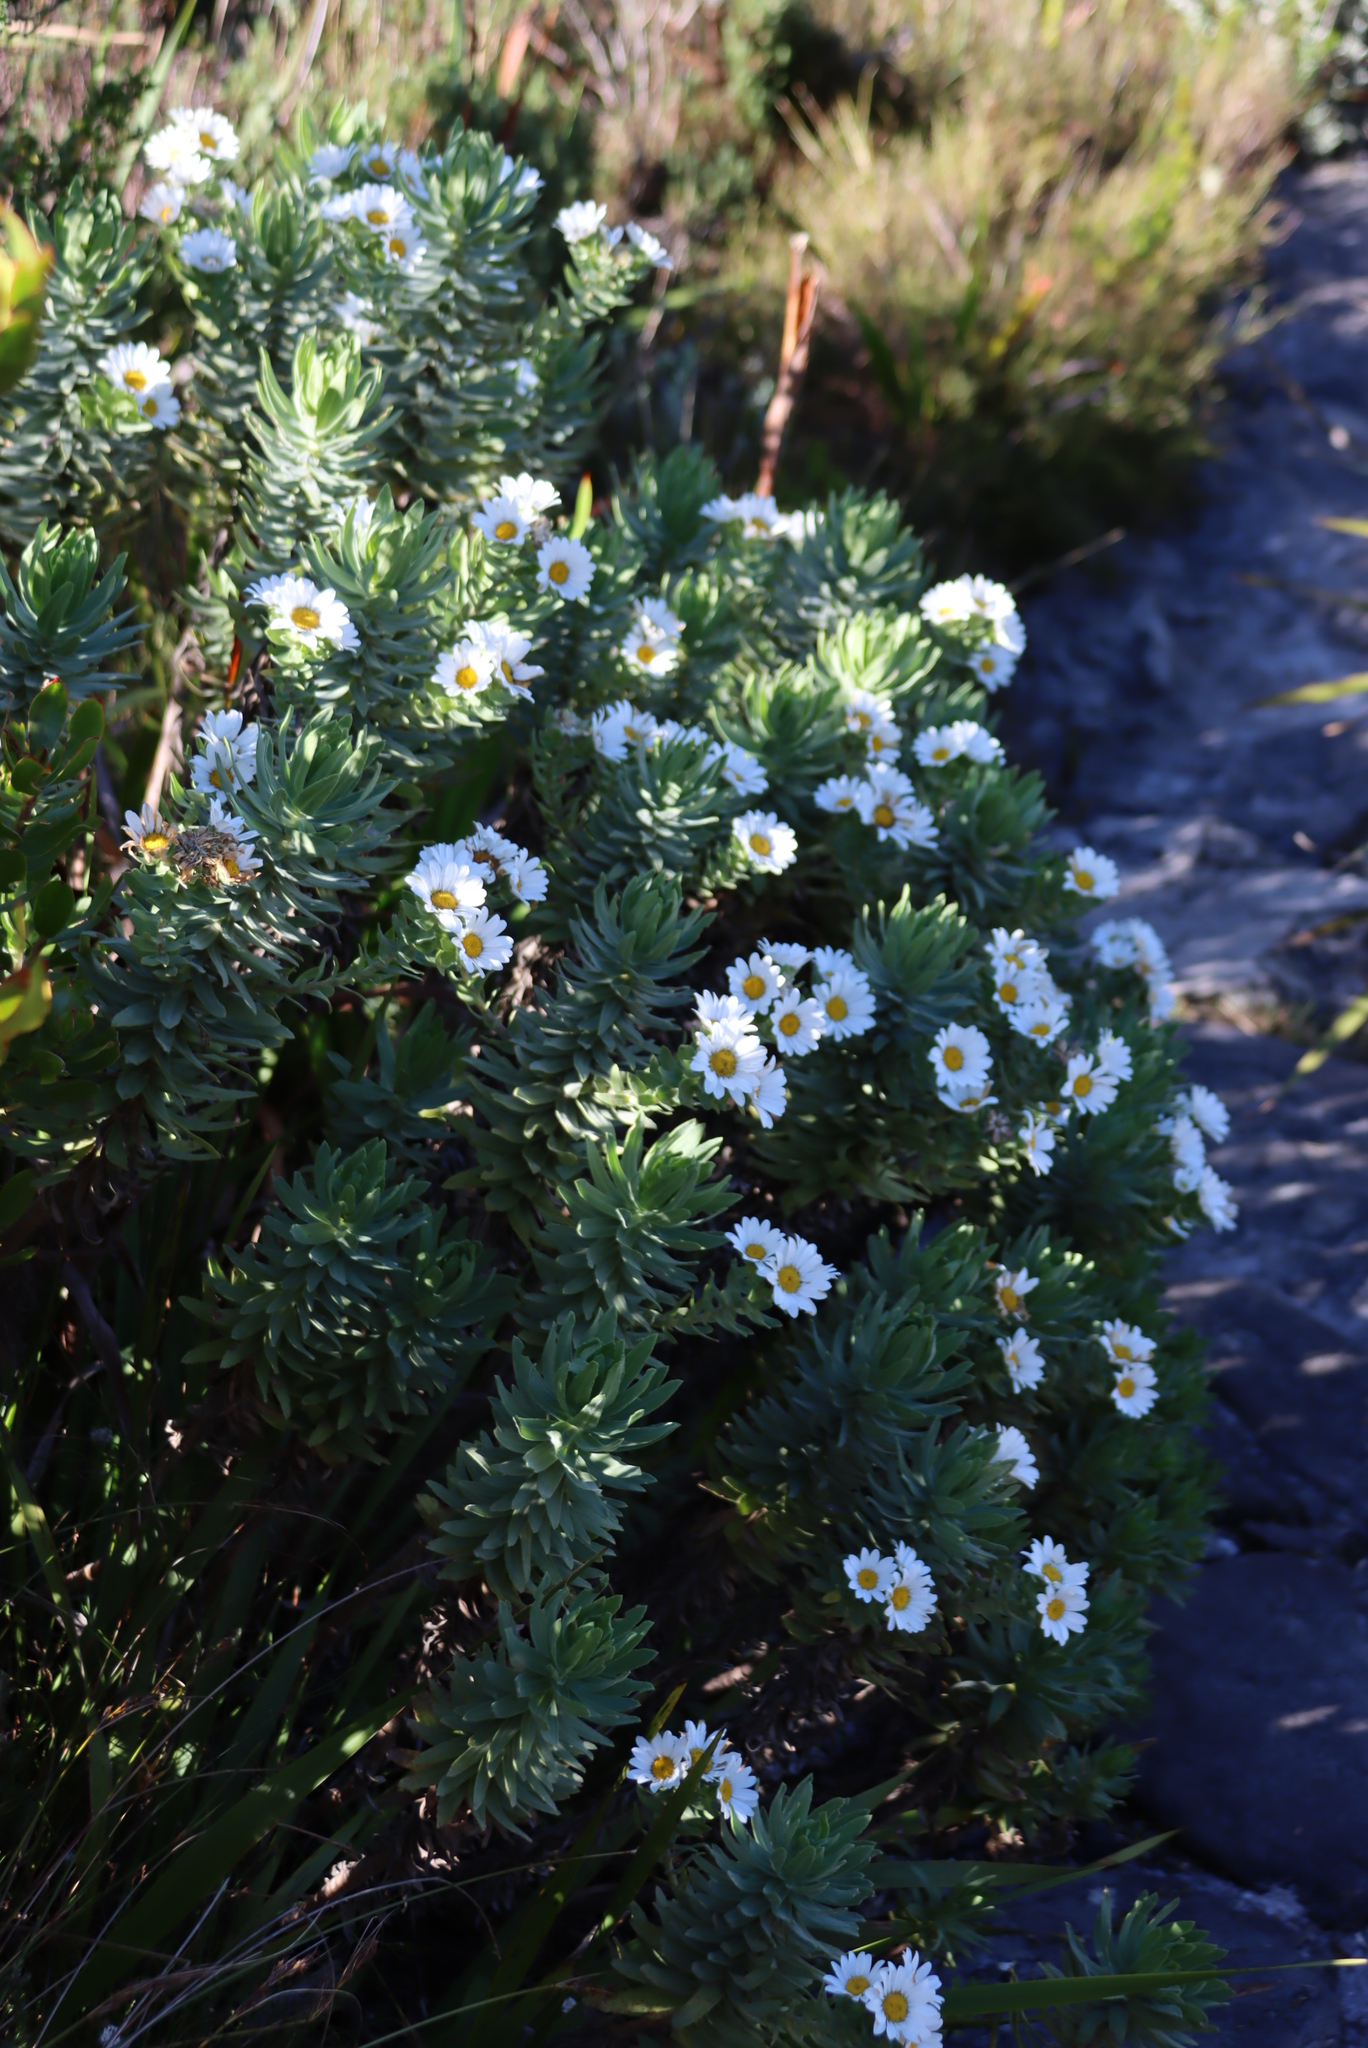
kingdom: Plantae
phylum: Tracheophyta
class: Magnoliopsida
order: Asterales
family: Asteraceae
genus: Osmitopsis
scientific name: Osmitopsis asteriscoides
